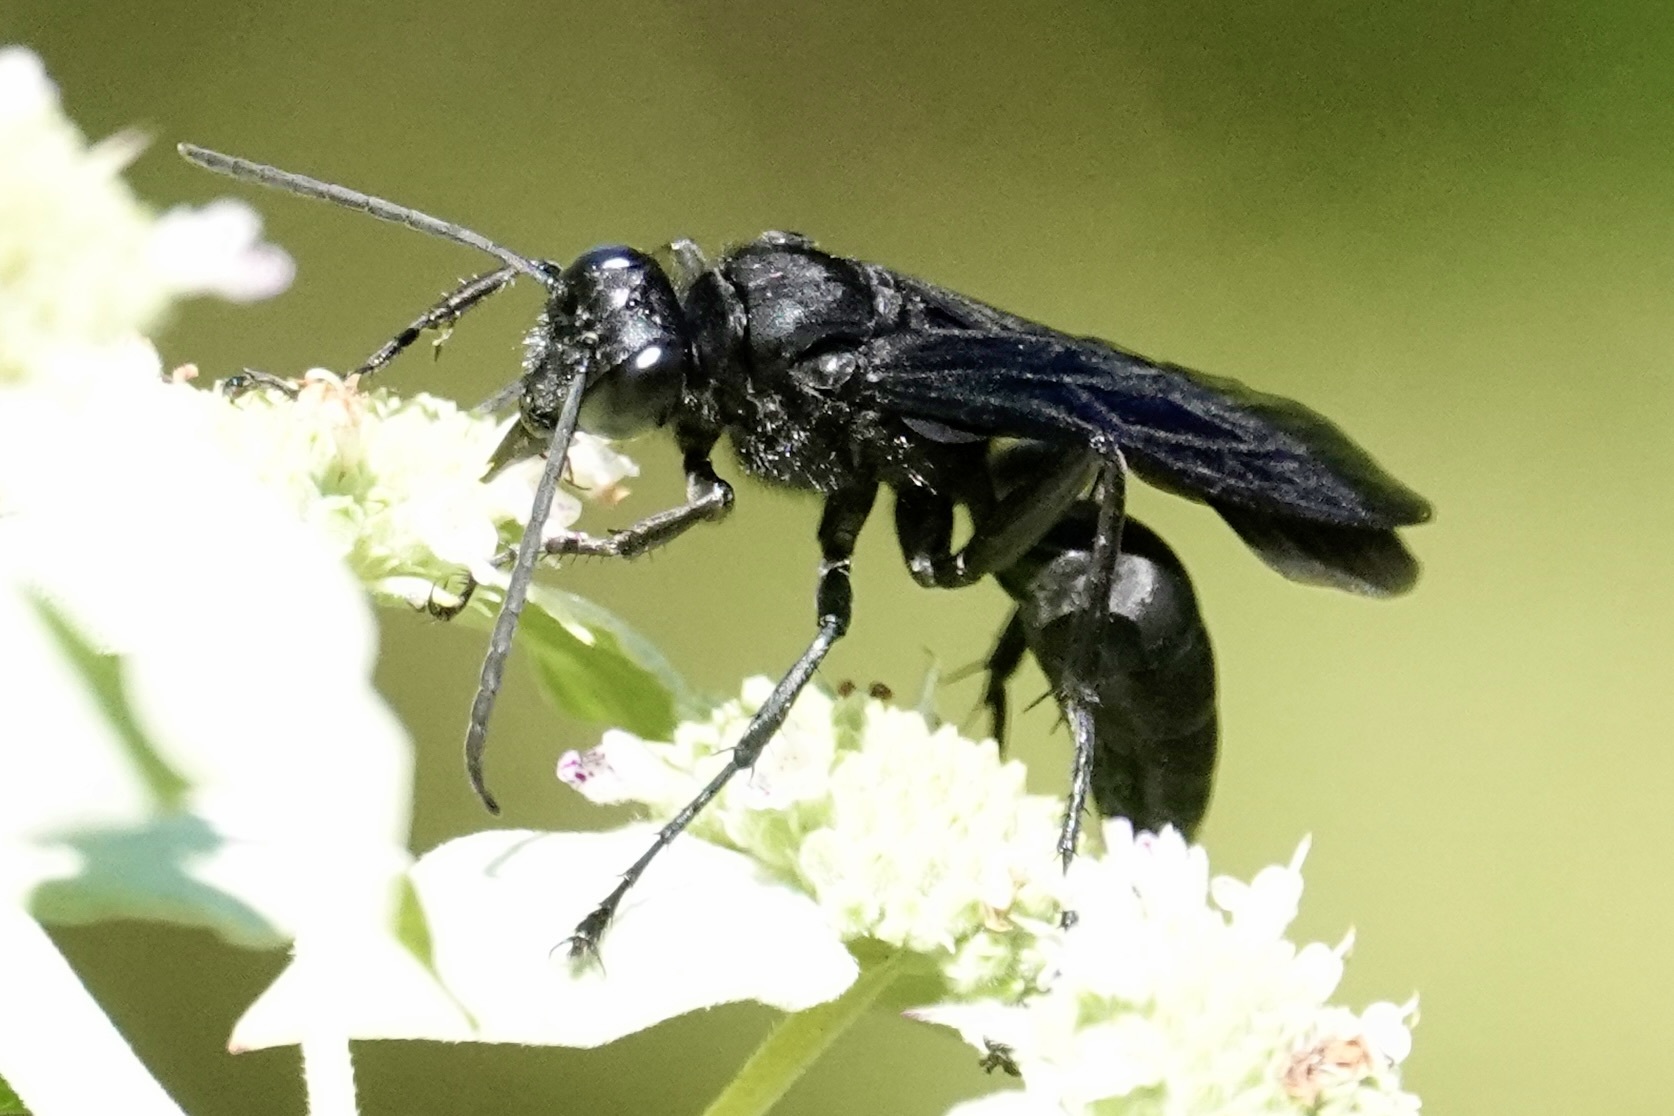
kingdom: Animalia
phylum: Arthropoda
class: Insecta
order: Hymenoptera
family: Sphecidae
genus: Sphex
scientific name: Sphex pensylvanicus
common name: Great black digger wasp
